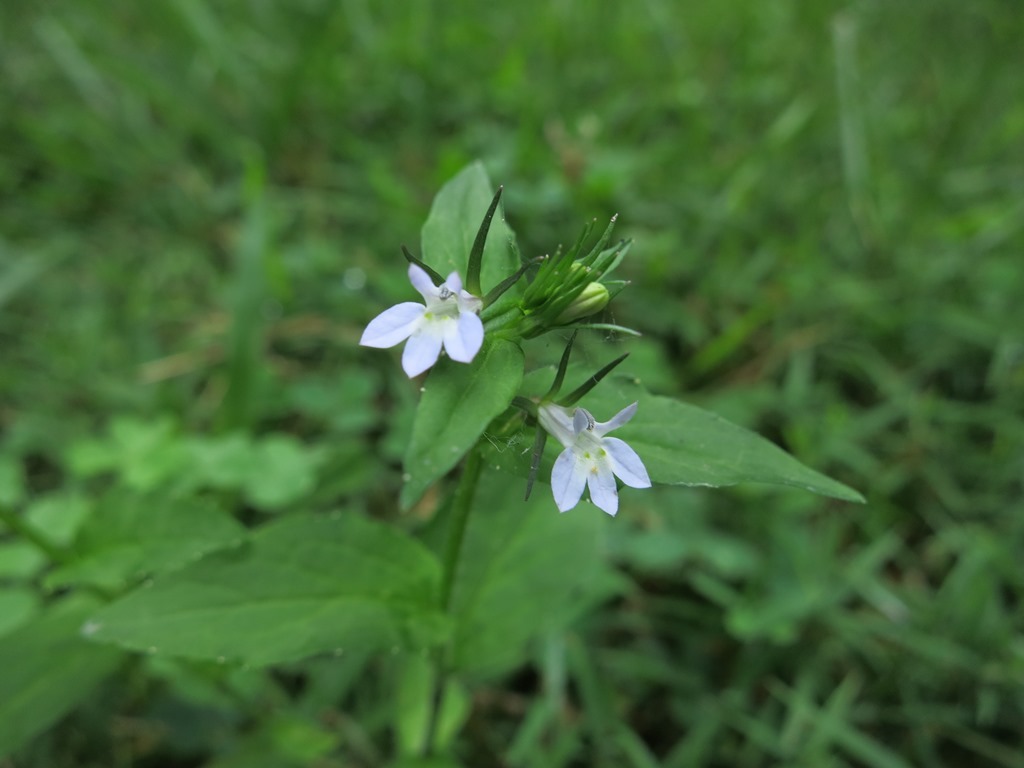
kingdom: Plantae
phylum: Tracheophyta
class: Magnoliopsida
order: Asterales
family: Campanulaceae
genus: Lobelia
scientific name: Lobelia inflata
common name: Indian tobacco
